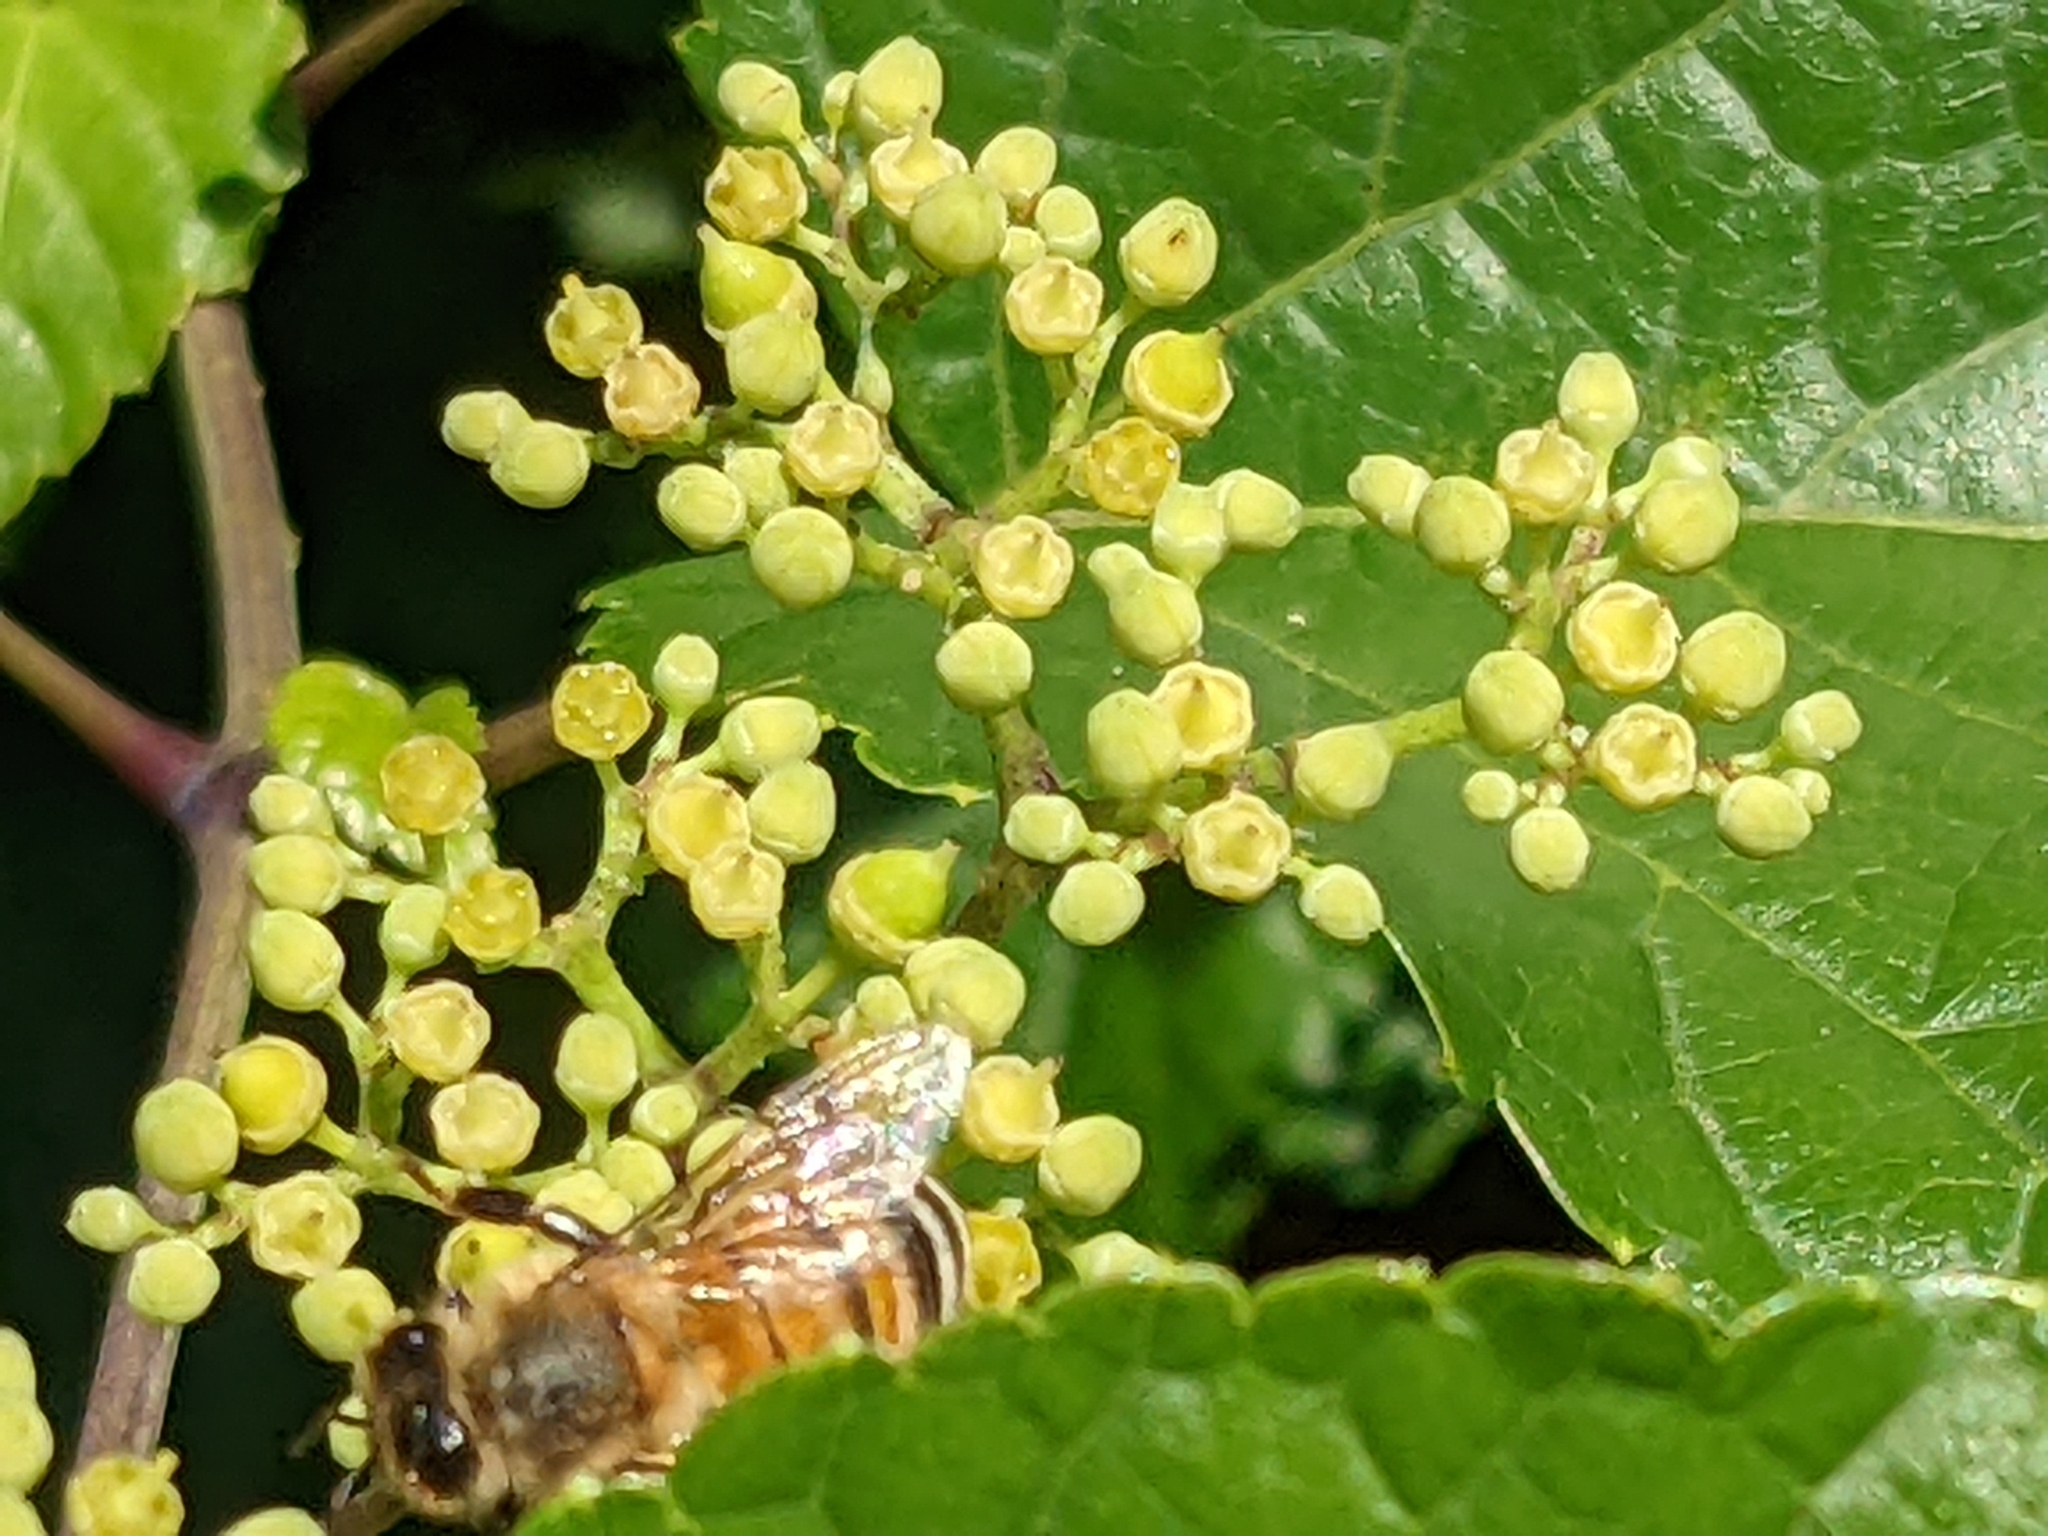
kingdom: Animalia
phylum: Arthropoda
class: Insecta
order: Hymenoptera
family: Apidae
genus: Apis
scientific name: Apis mellifera
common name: Honey bee
